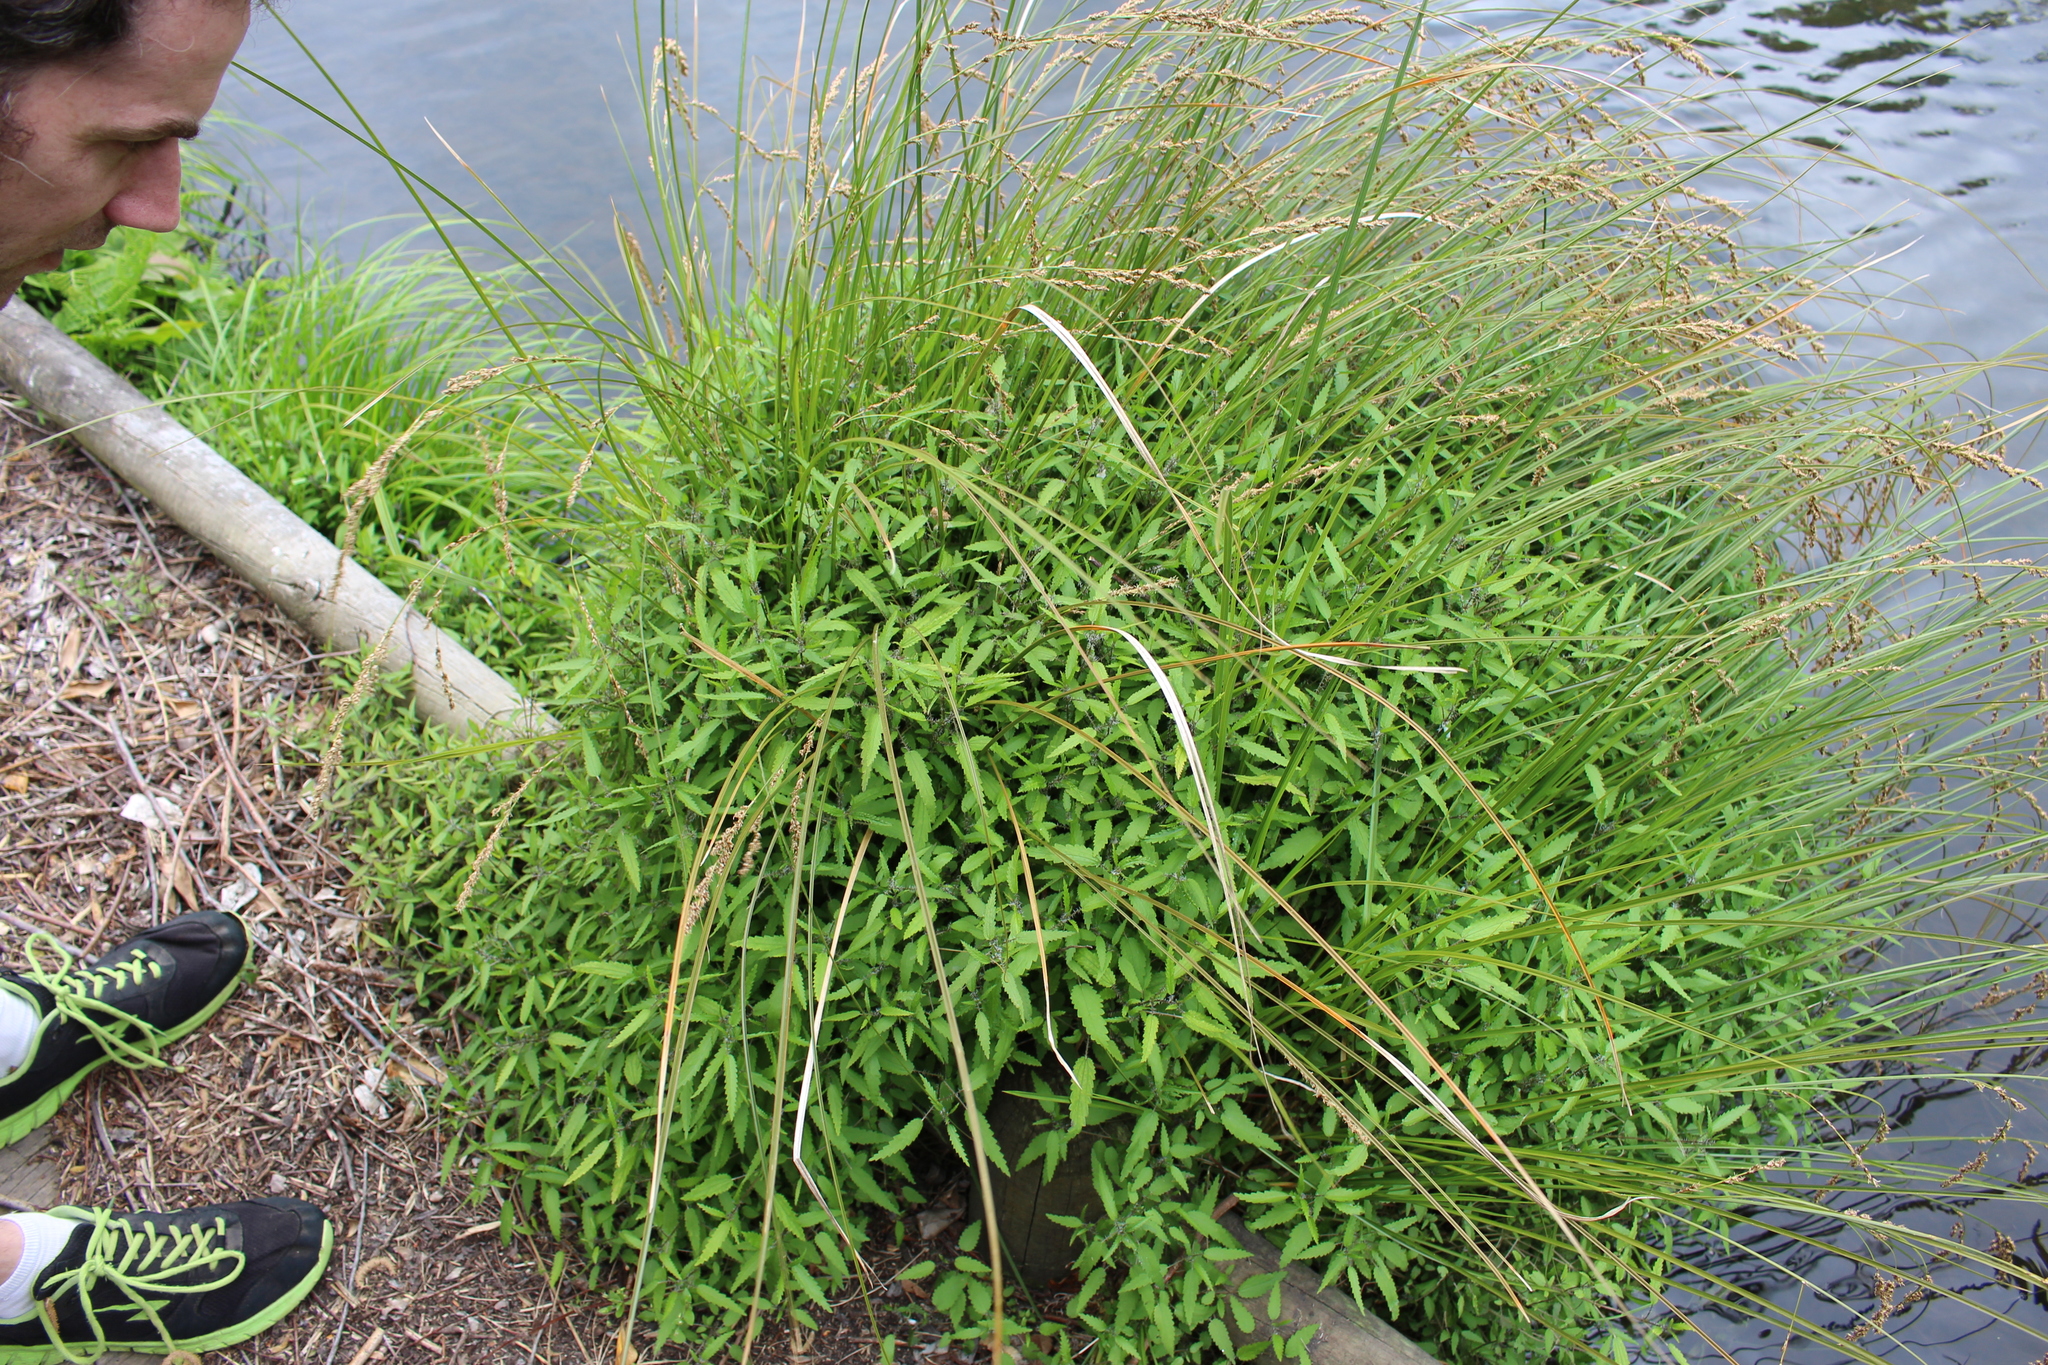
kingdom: Plantae
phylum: Tracheophyta
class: Magnoliopsida
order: Rosales
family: Urticaceae
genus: Urtica
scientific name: Urtica perconfusa
